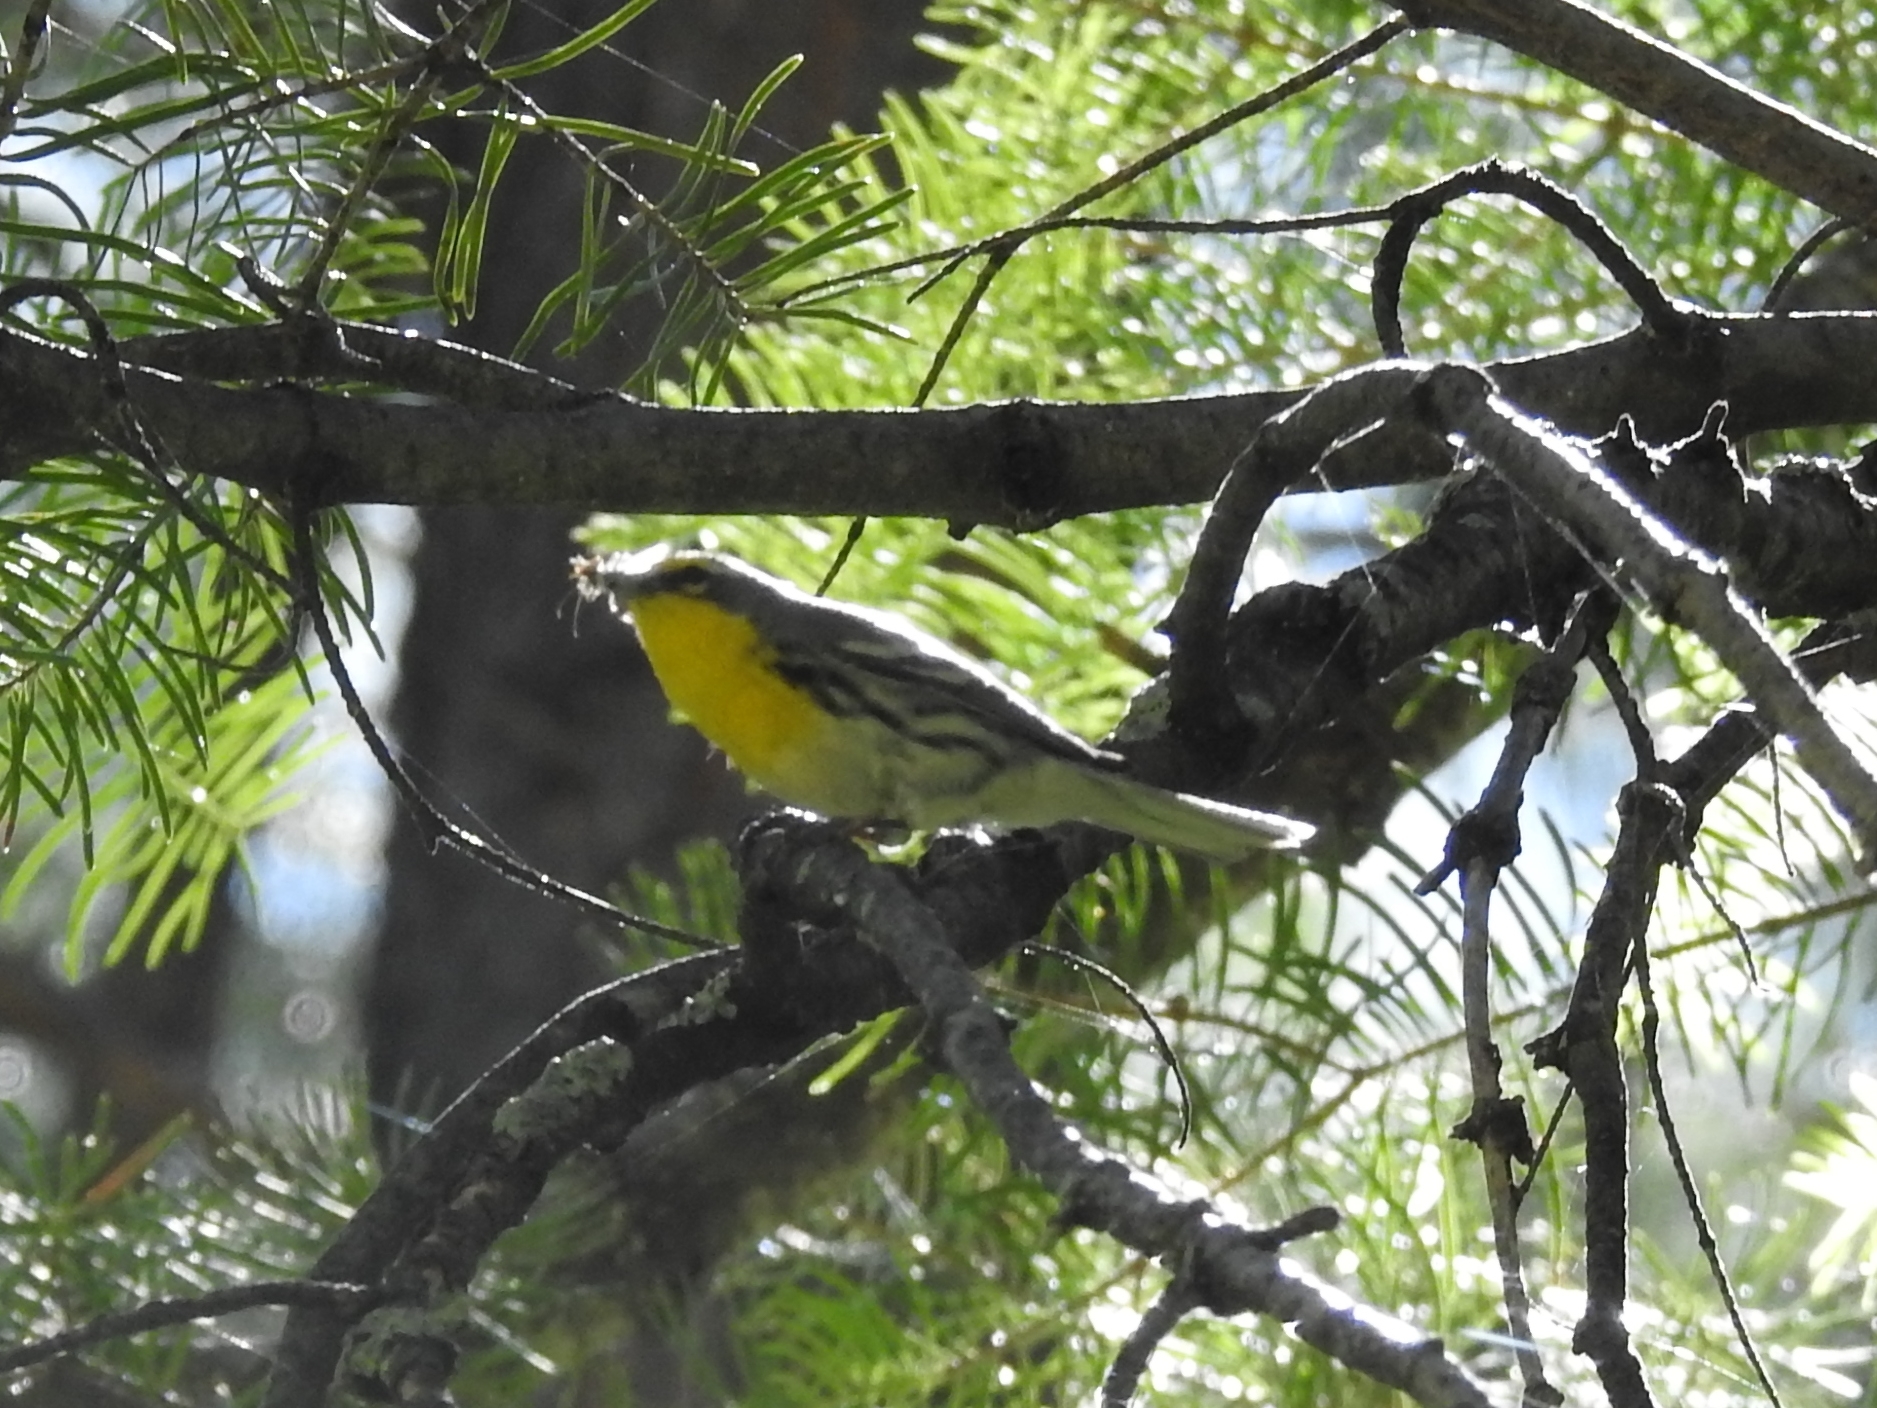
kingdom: Animalia
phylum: Chordata
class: Aves
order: Passeriformes
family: Parulidae
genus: Setophaga
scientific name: Setophaga graciae
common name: Grace's warbler
